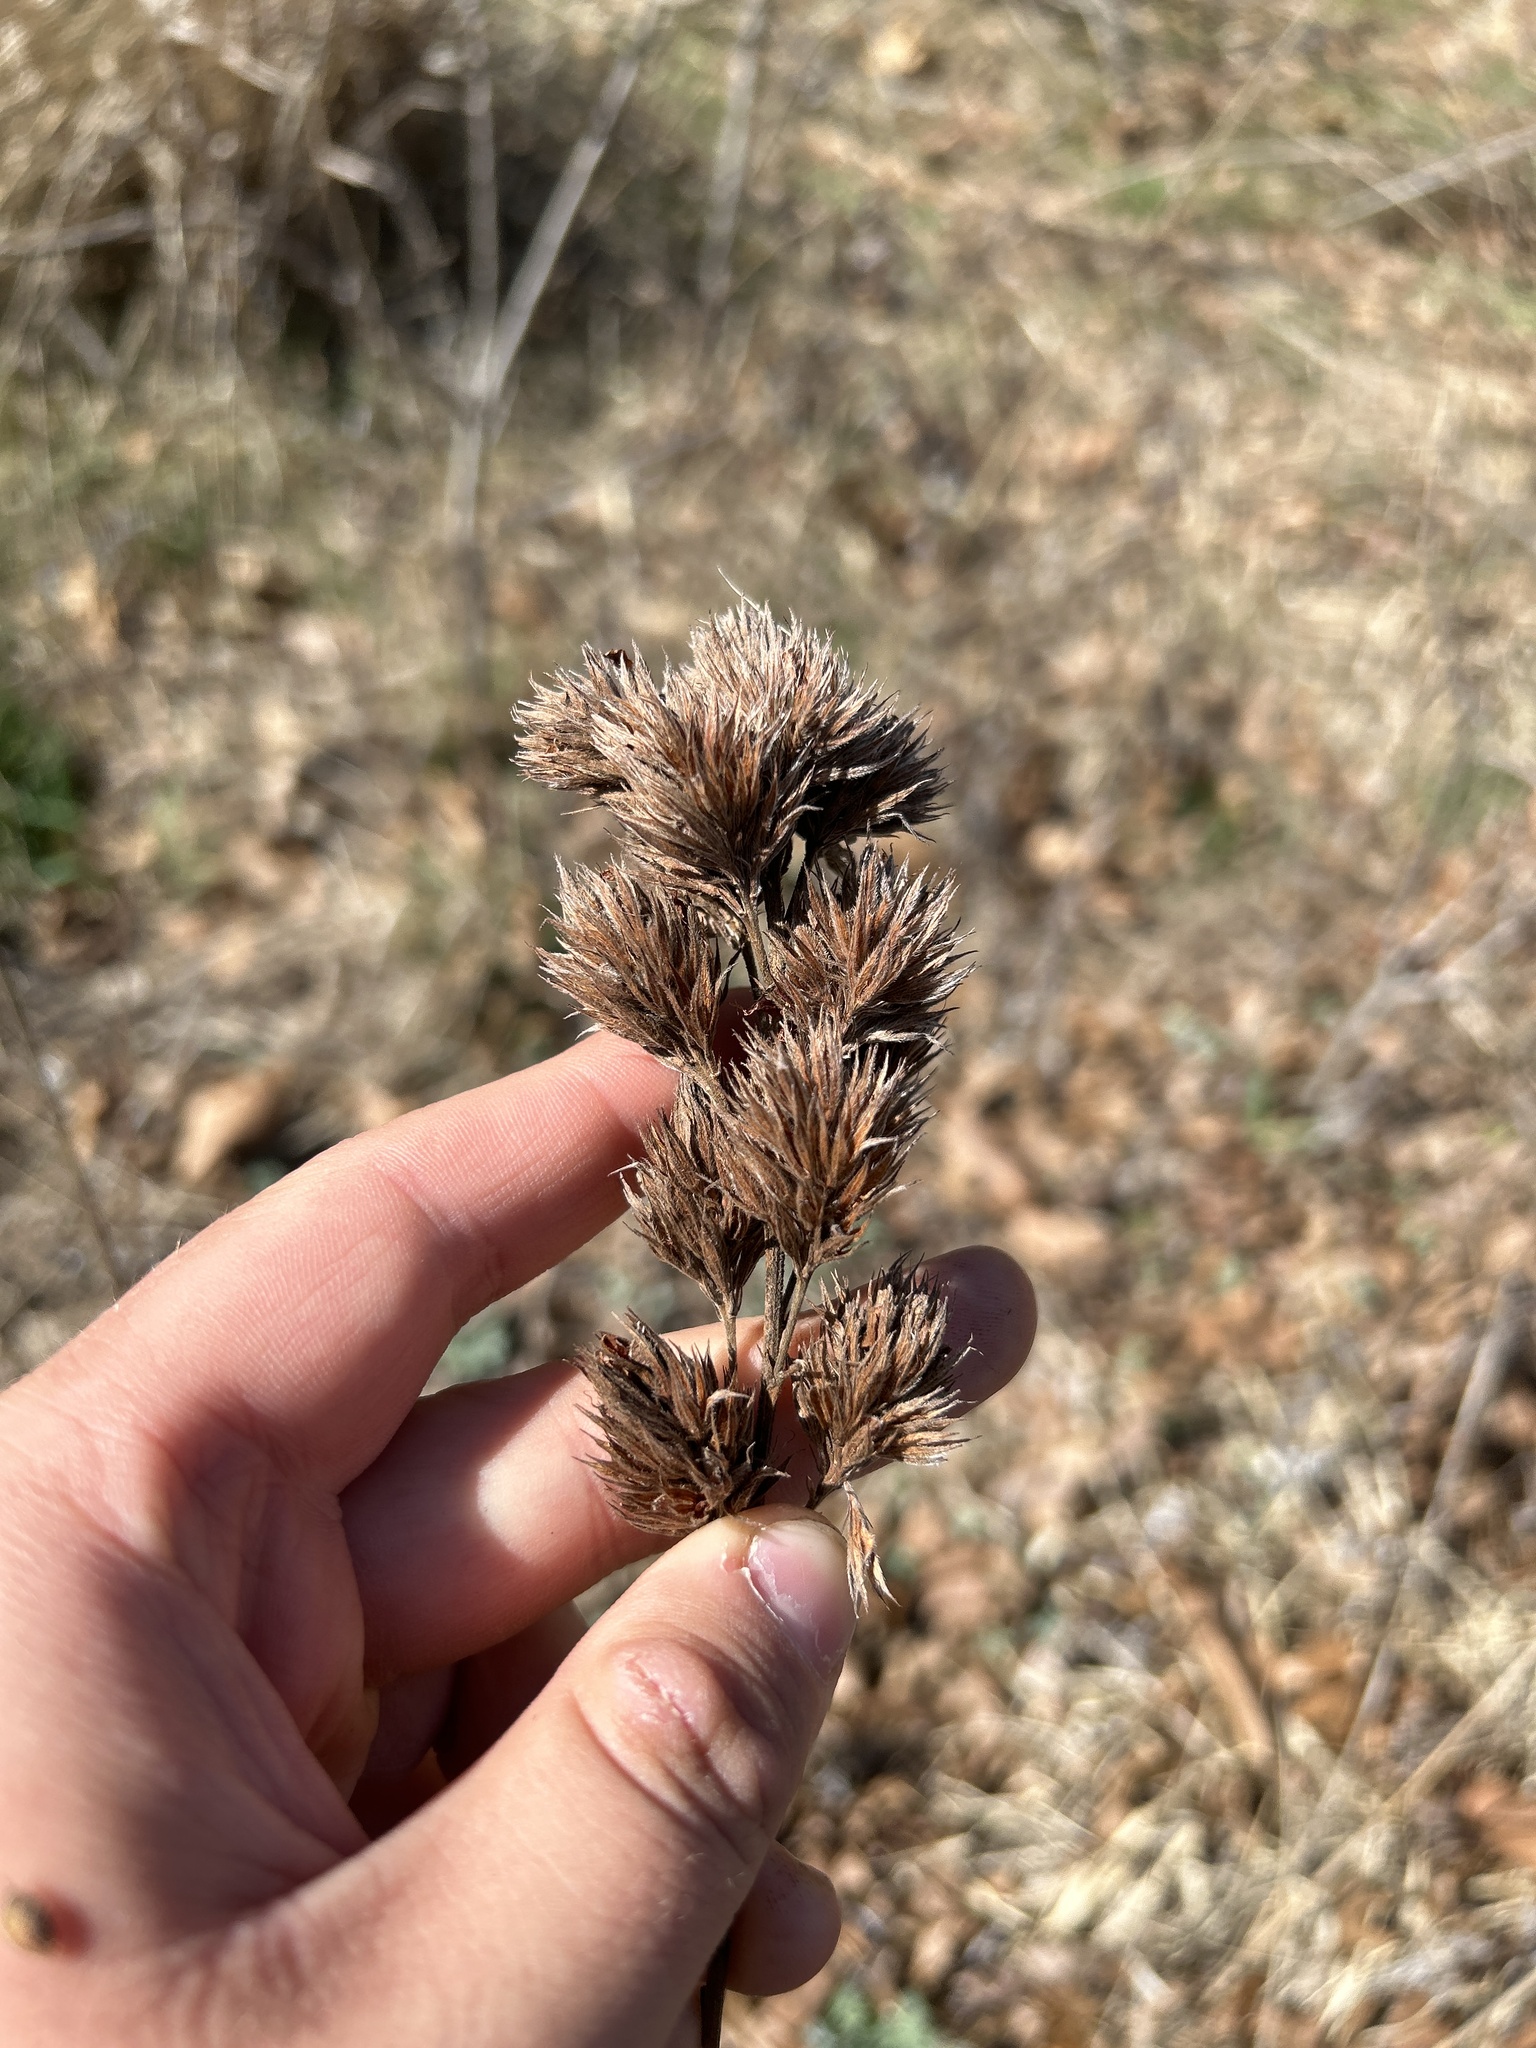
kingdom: Plantae
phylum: Tracheophyta
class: Magnoliopsida
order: Fabales
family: Fabaceae
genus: Lespedeza
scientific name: Lespedeza capitata
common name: Dusty clover
